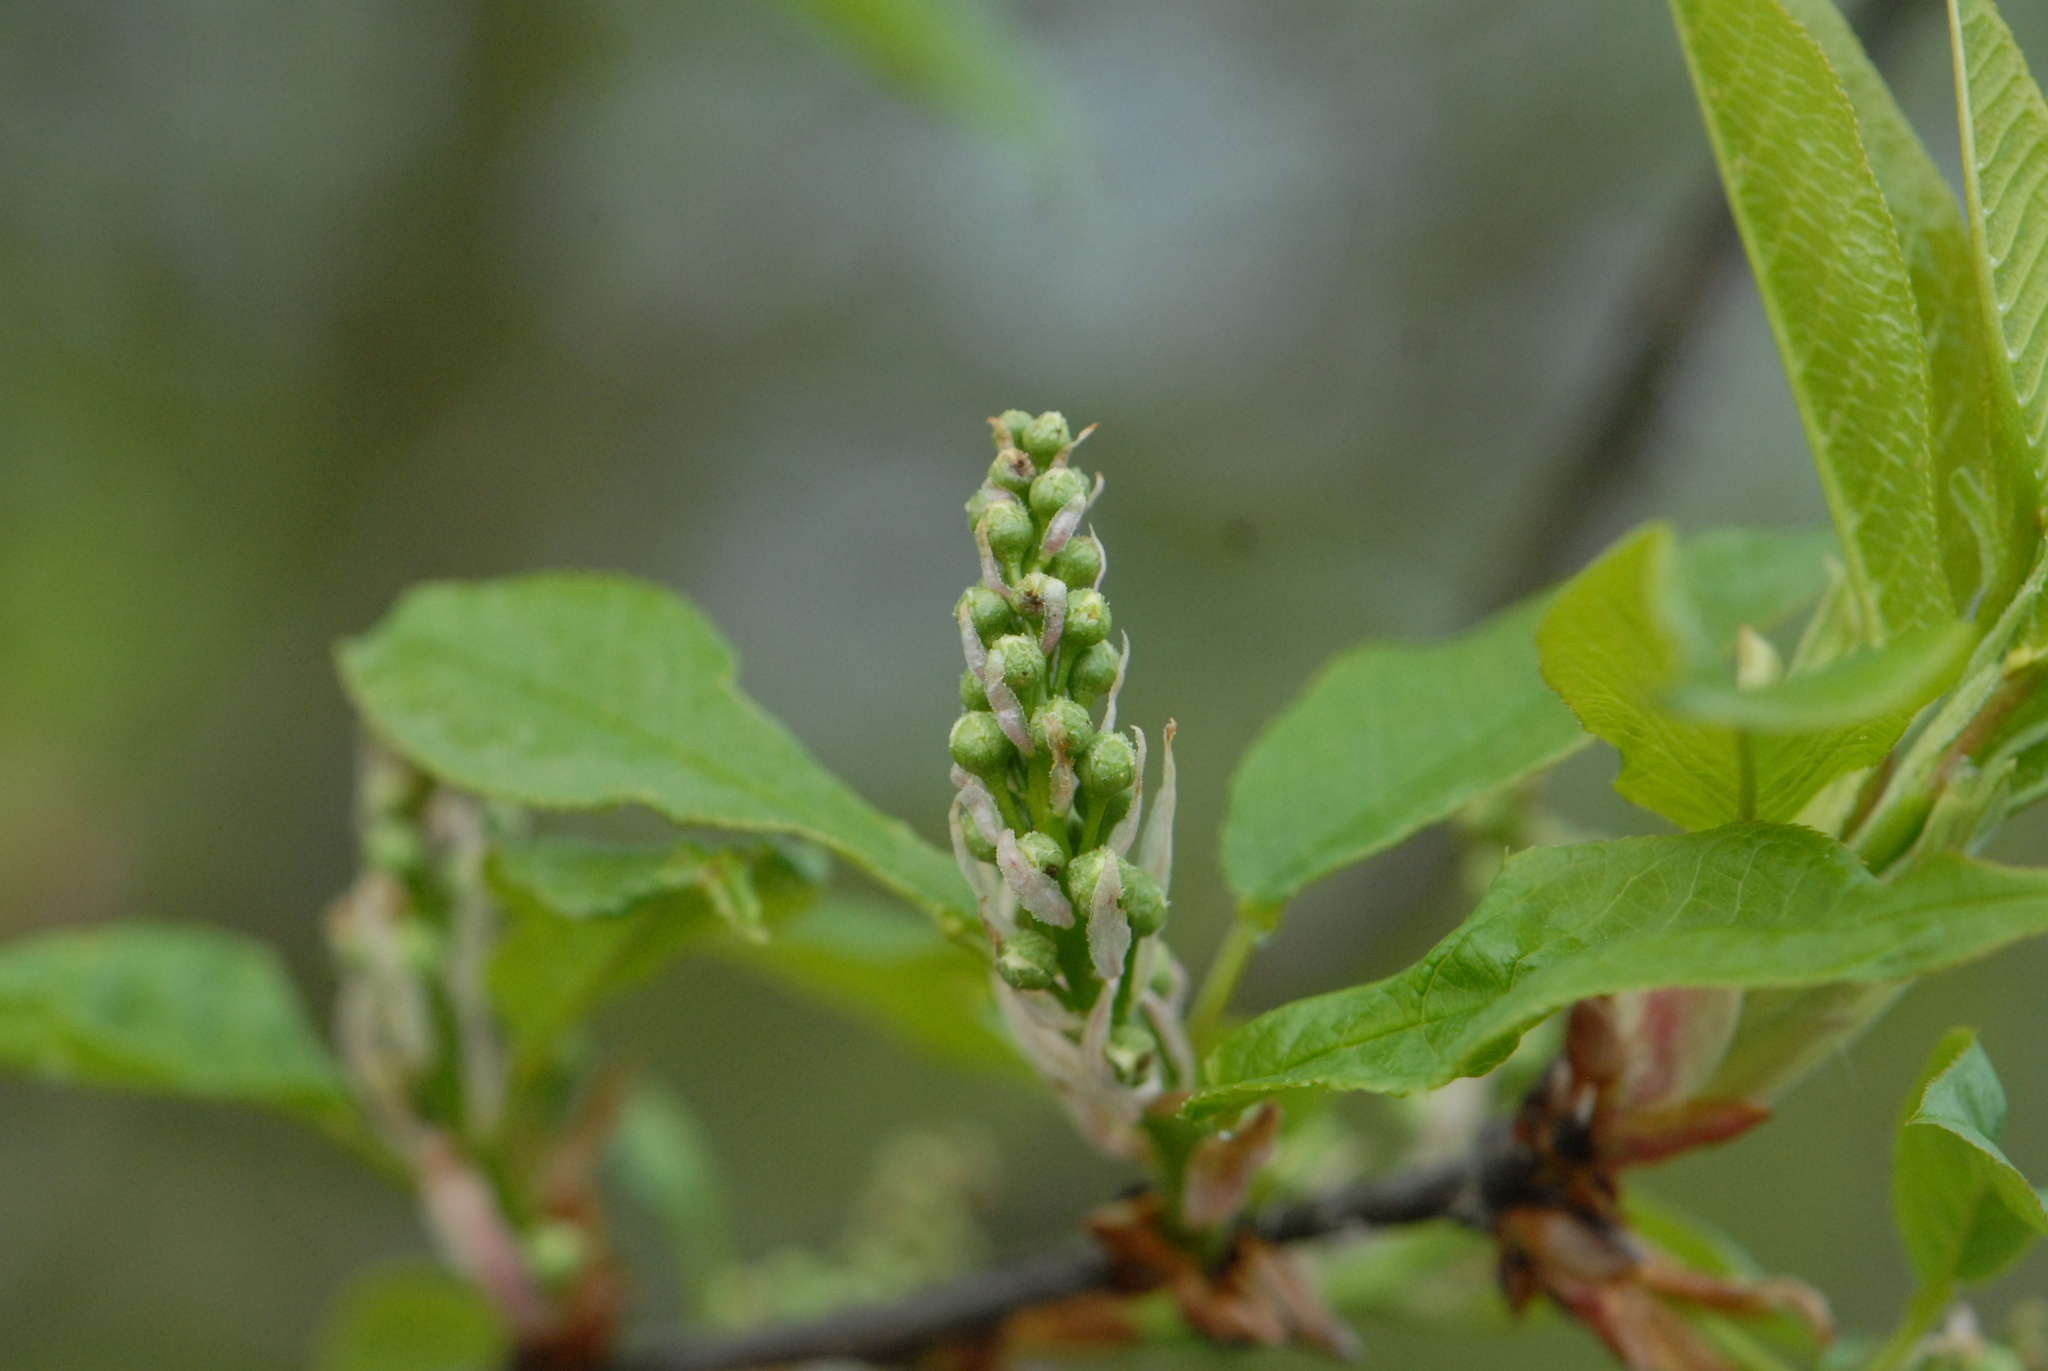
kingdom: Plantae
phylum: Tracheophyta
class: Magnoliopsida
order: Rosales
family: Rosaceae
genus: Prunus
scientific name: Prunus padus
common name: Bird cherry
